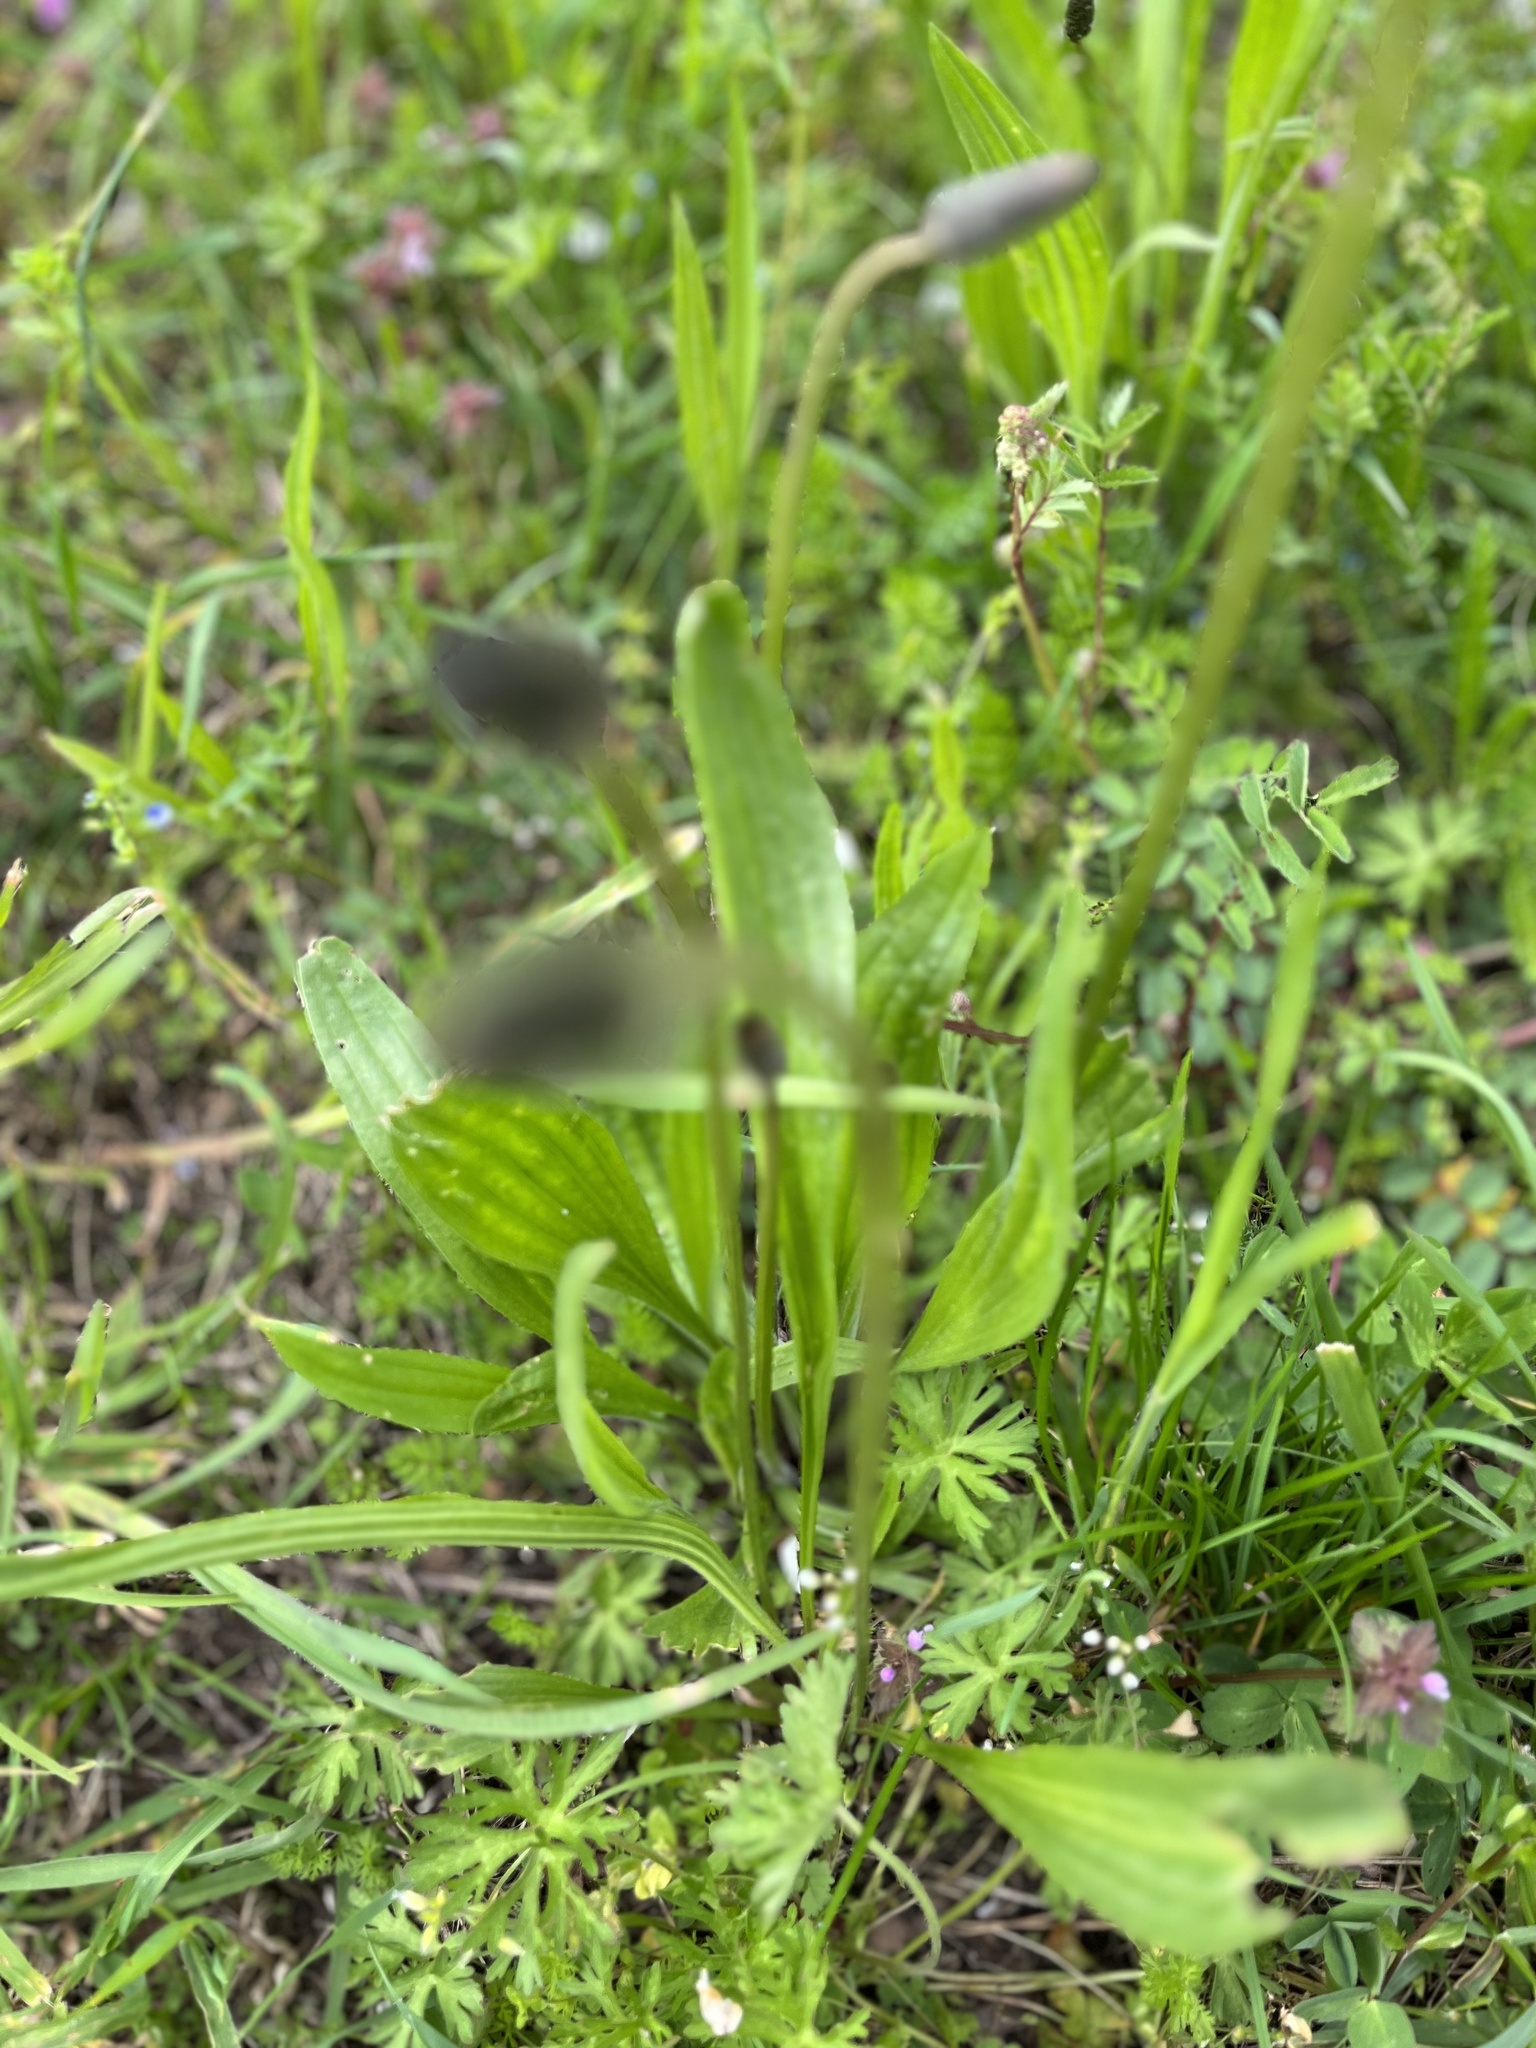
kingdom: Plantae
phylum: Tracheophyta
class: Magnoliopsida
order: Lamiales
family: Plantaginaceae
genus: Plantago
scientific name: Plantago lanceolata
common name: Ribwort plantain
